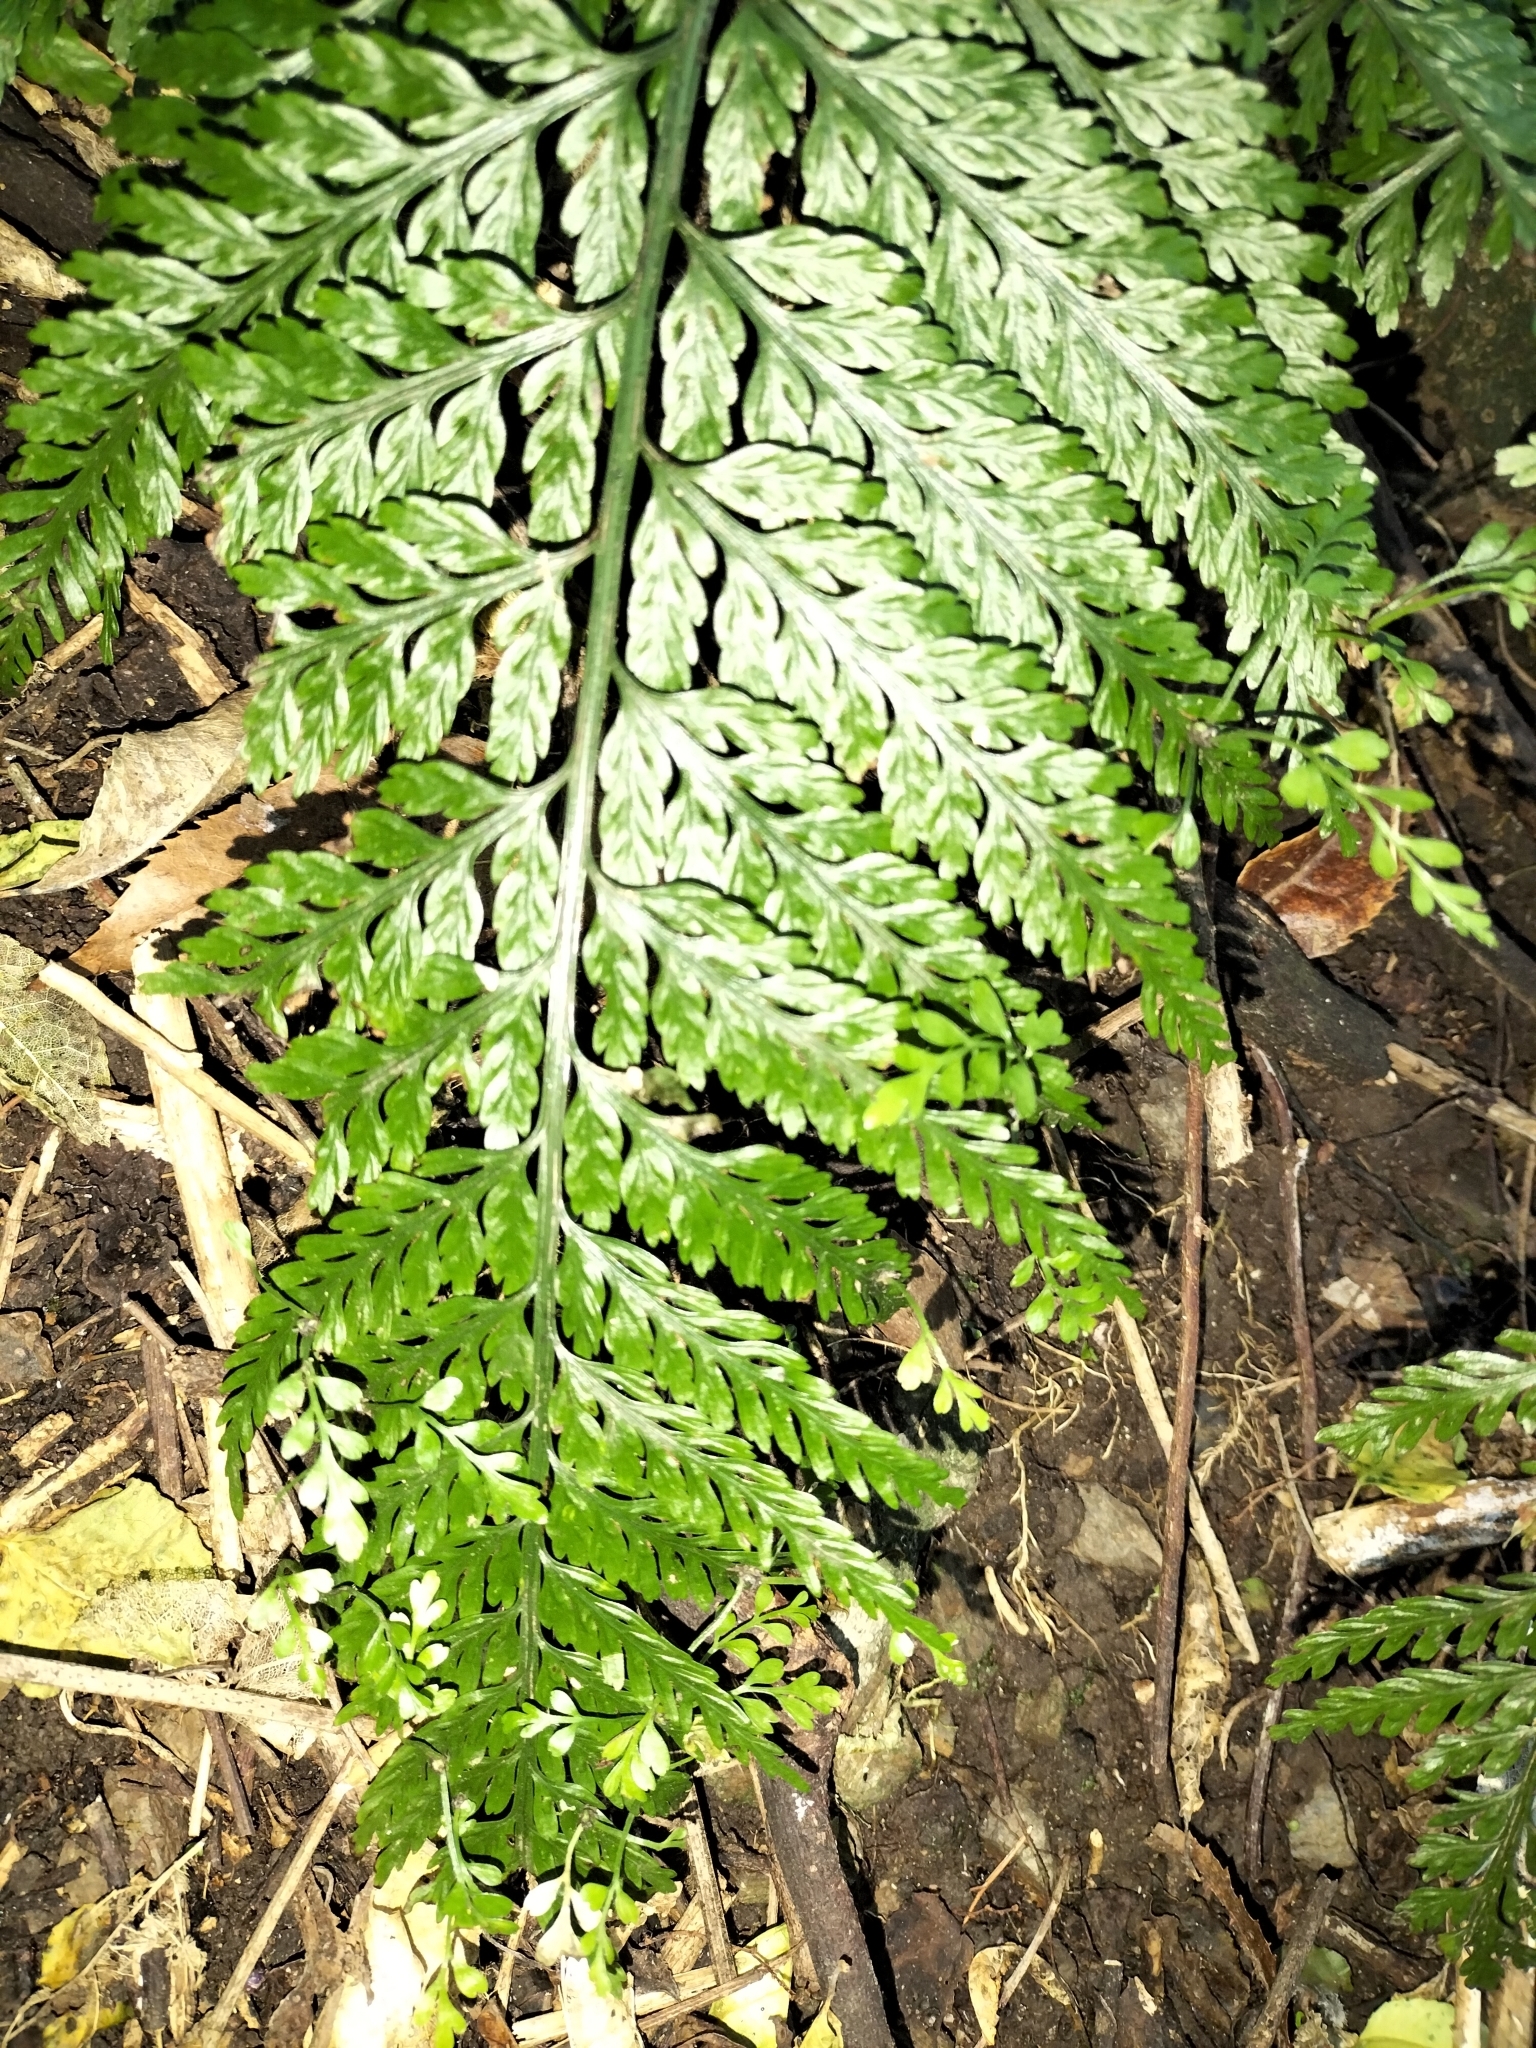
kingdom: Plantae
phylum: Tracheophyta
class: Polypodiopsida
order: Polypodiales
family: Aspleniaceae
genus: Asplenium
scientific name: Asplenium bulbiferum
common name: Mother fern
